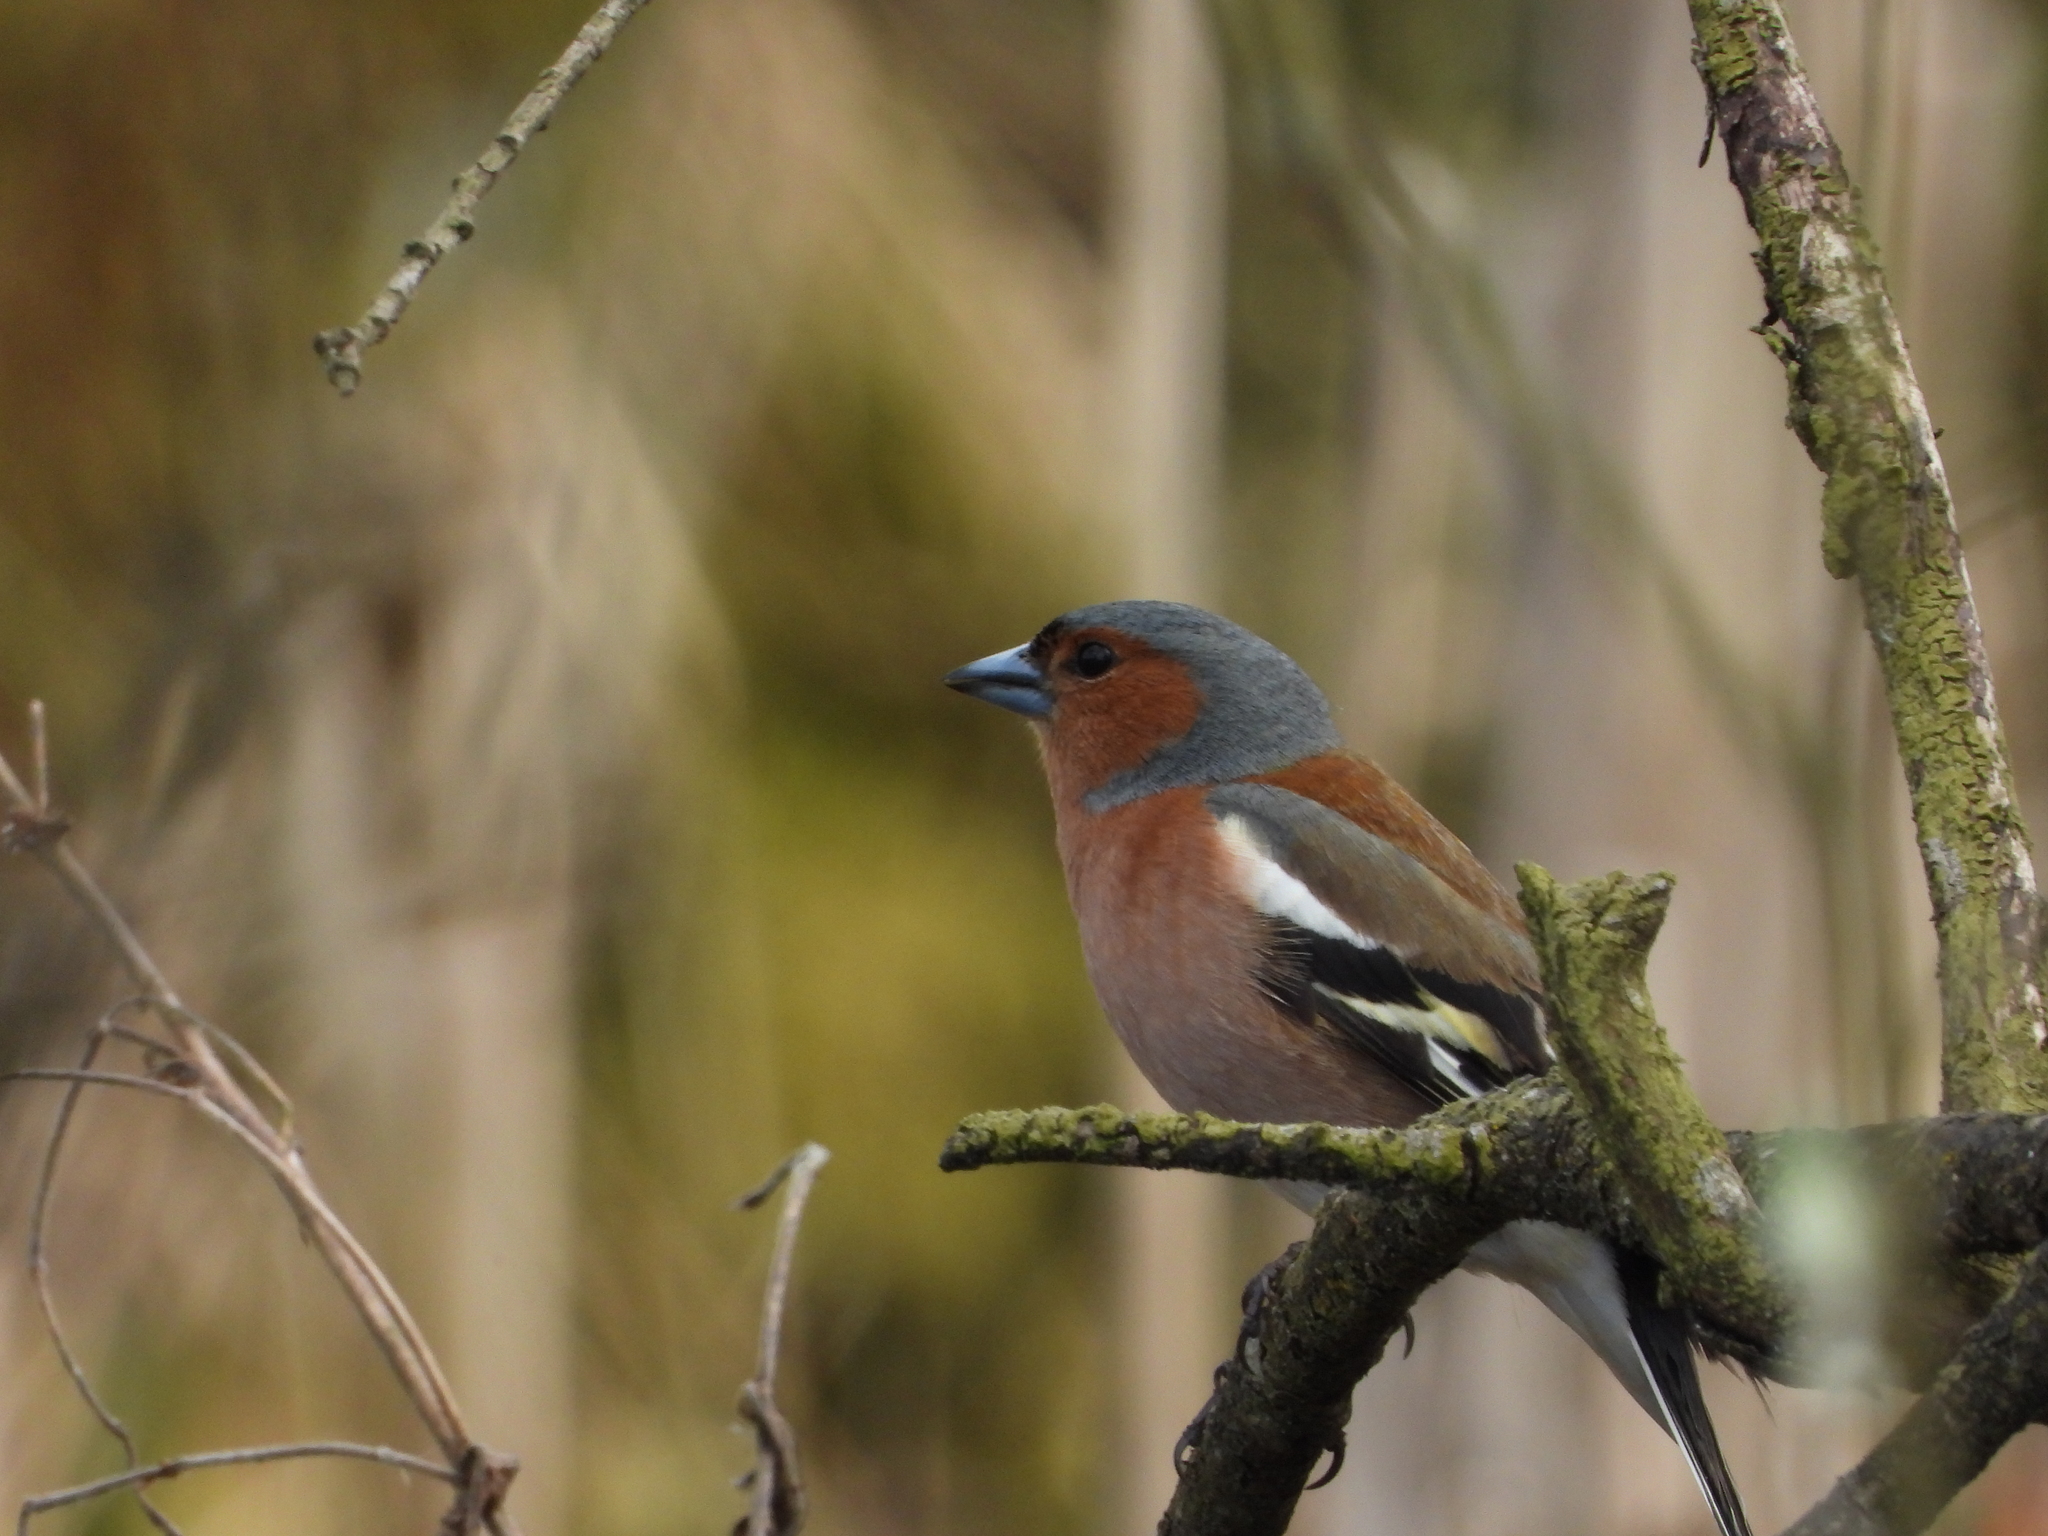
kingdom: Animalia
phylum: Chordata
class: Aves
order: Passeriformes
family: Fringillidae
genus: Fringilla
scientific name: Fringilla coelebs
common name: Common chaffinch
